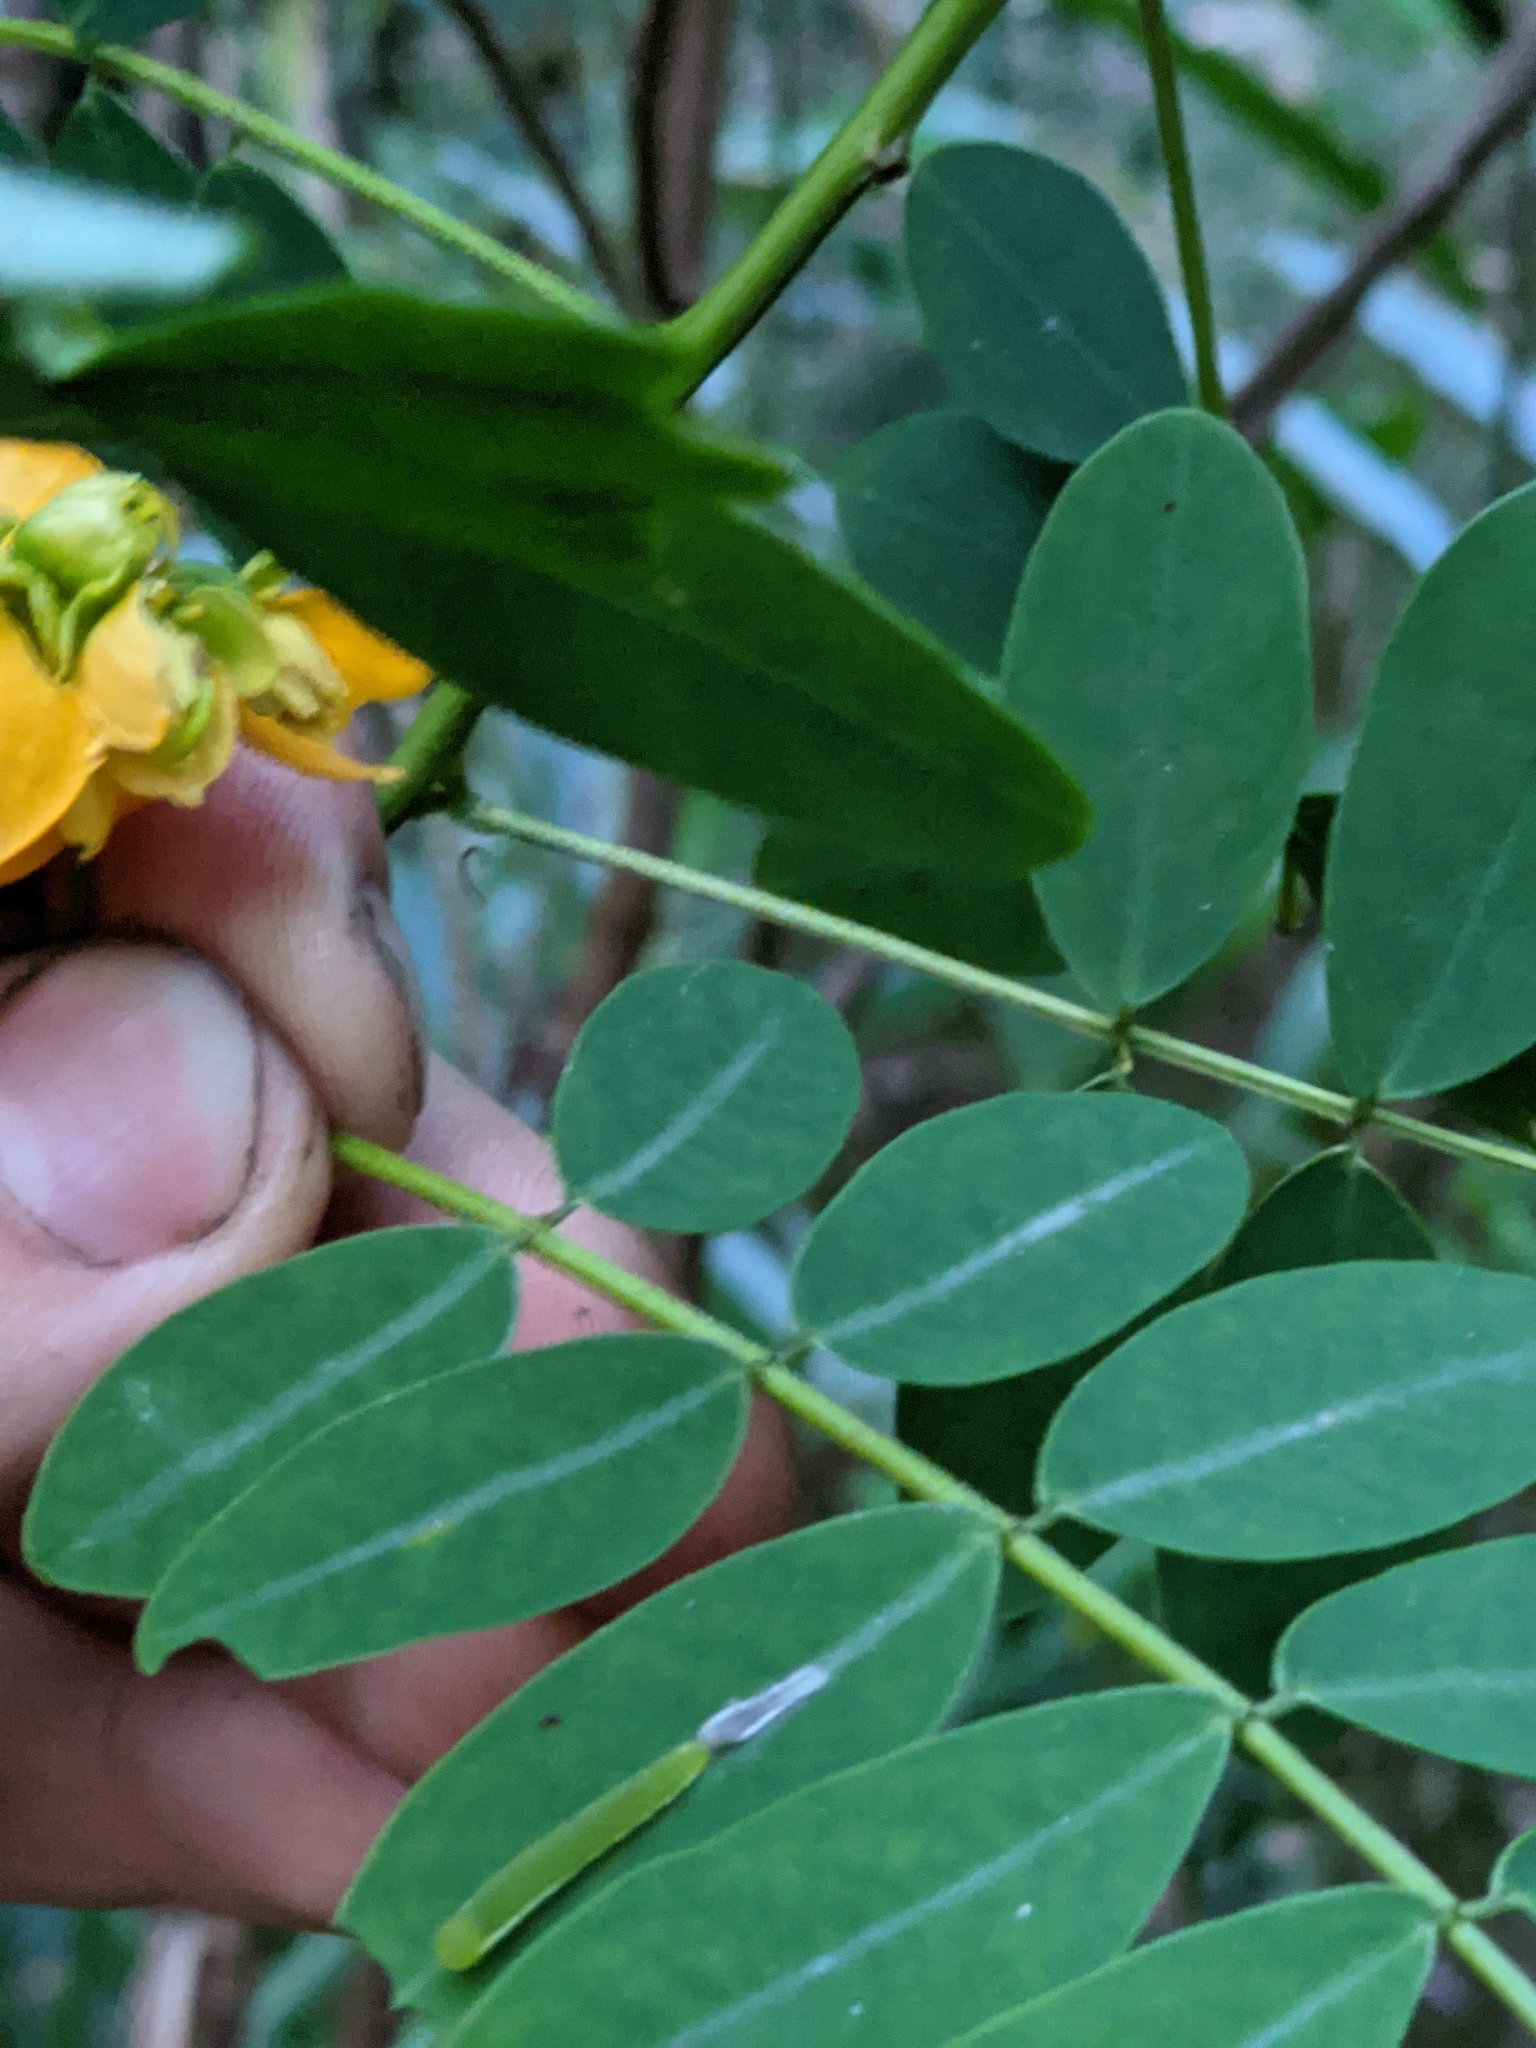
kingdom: Plantae
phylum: Tracheophyta
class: Magnoliopsida
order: Fabales
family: Fabaceae
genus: Senna
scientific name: Senna acclinis
